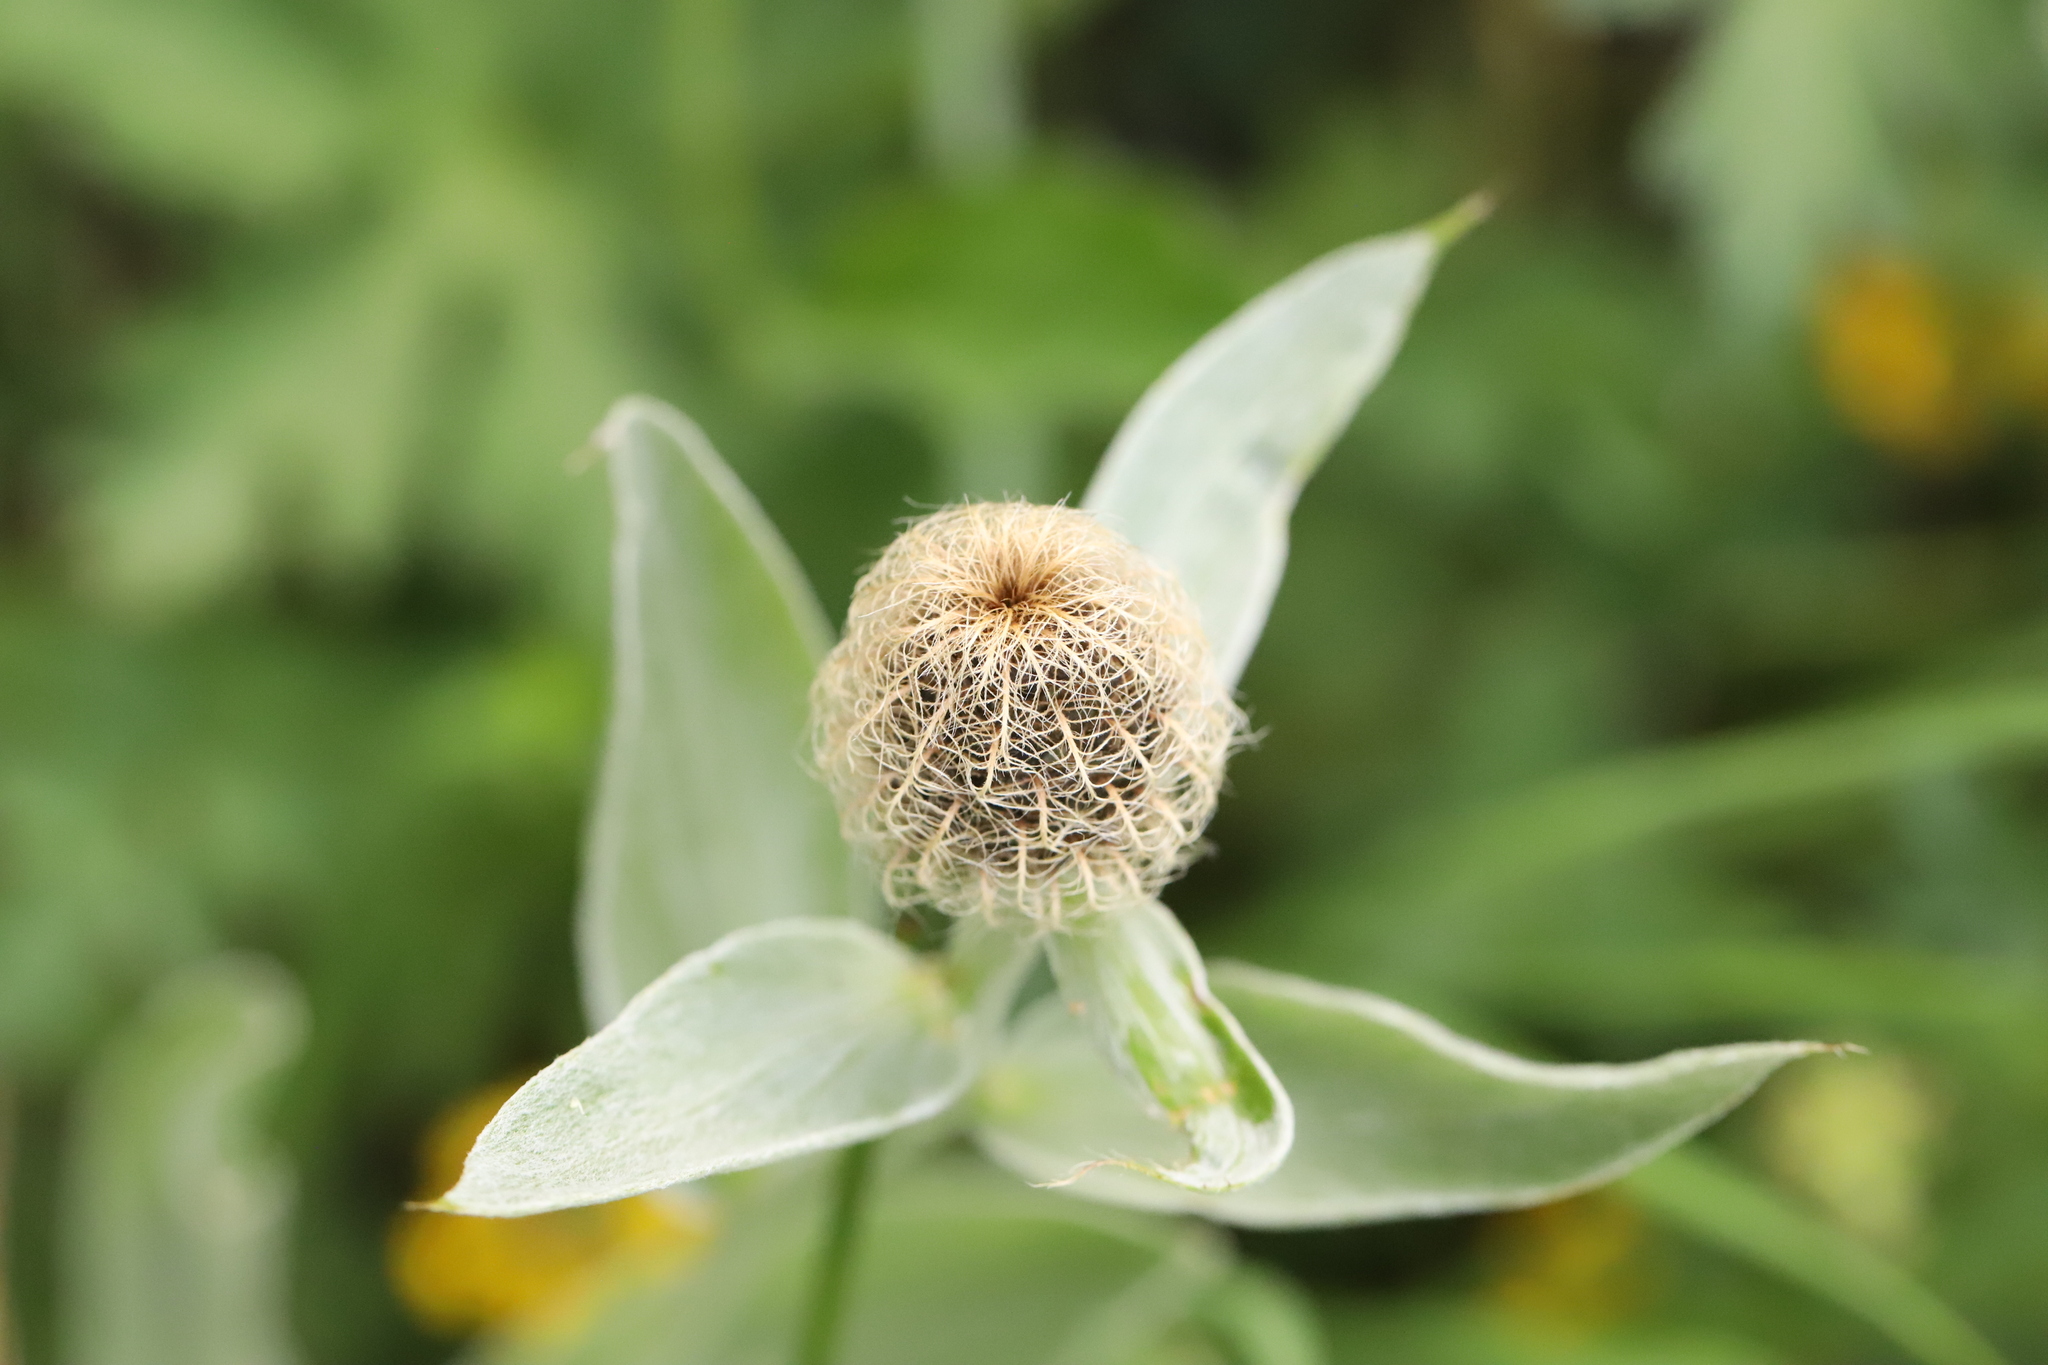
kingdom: Plantae
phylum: Tracheophyta
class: Magnoliopsida
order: Asterales
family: Asteraceae
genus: Centaurea
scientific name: Centaurea uniflora
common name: Singleflower knapweed
